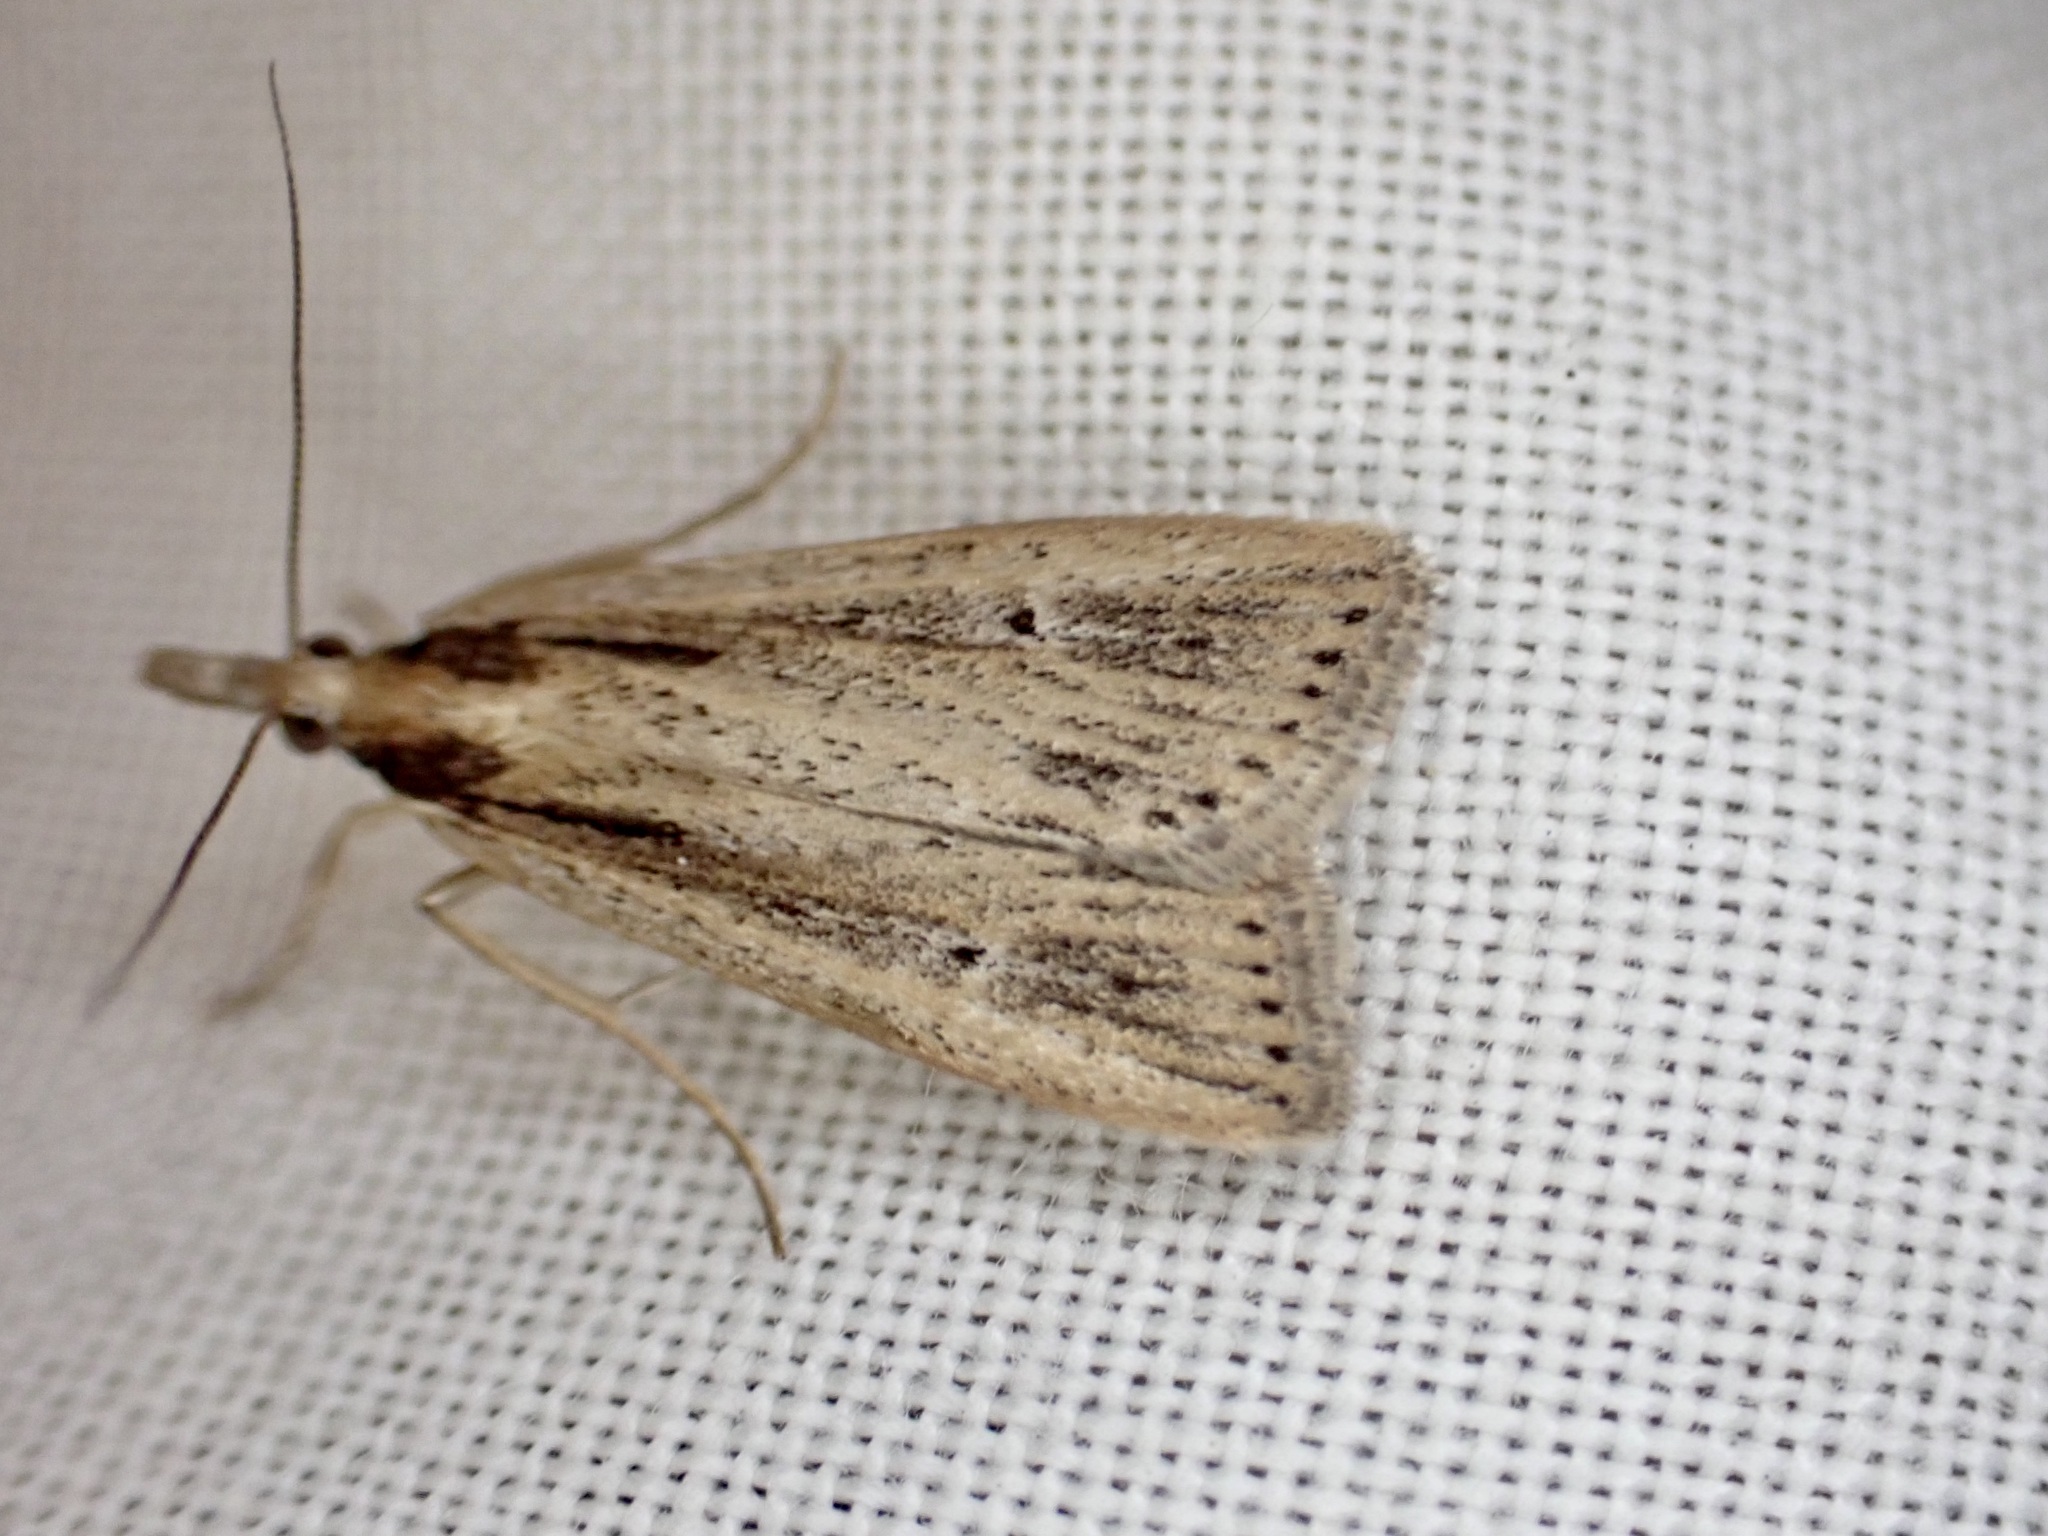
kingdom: Animalia
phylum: Arthropoda
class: Insecta
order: Lepidoptera
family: Crambidae
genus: Eudonia
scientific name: Eudonia sabulosella
